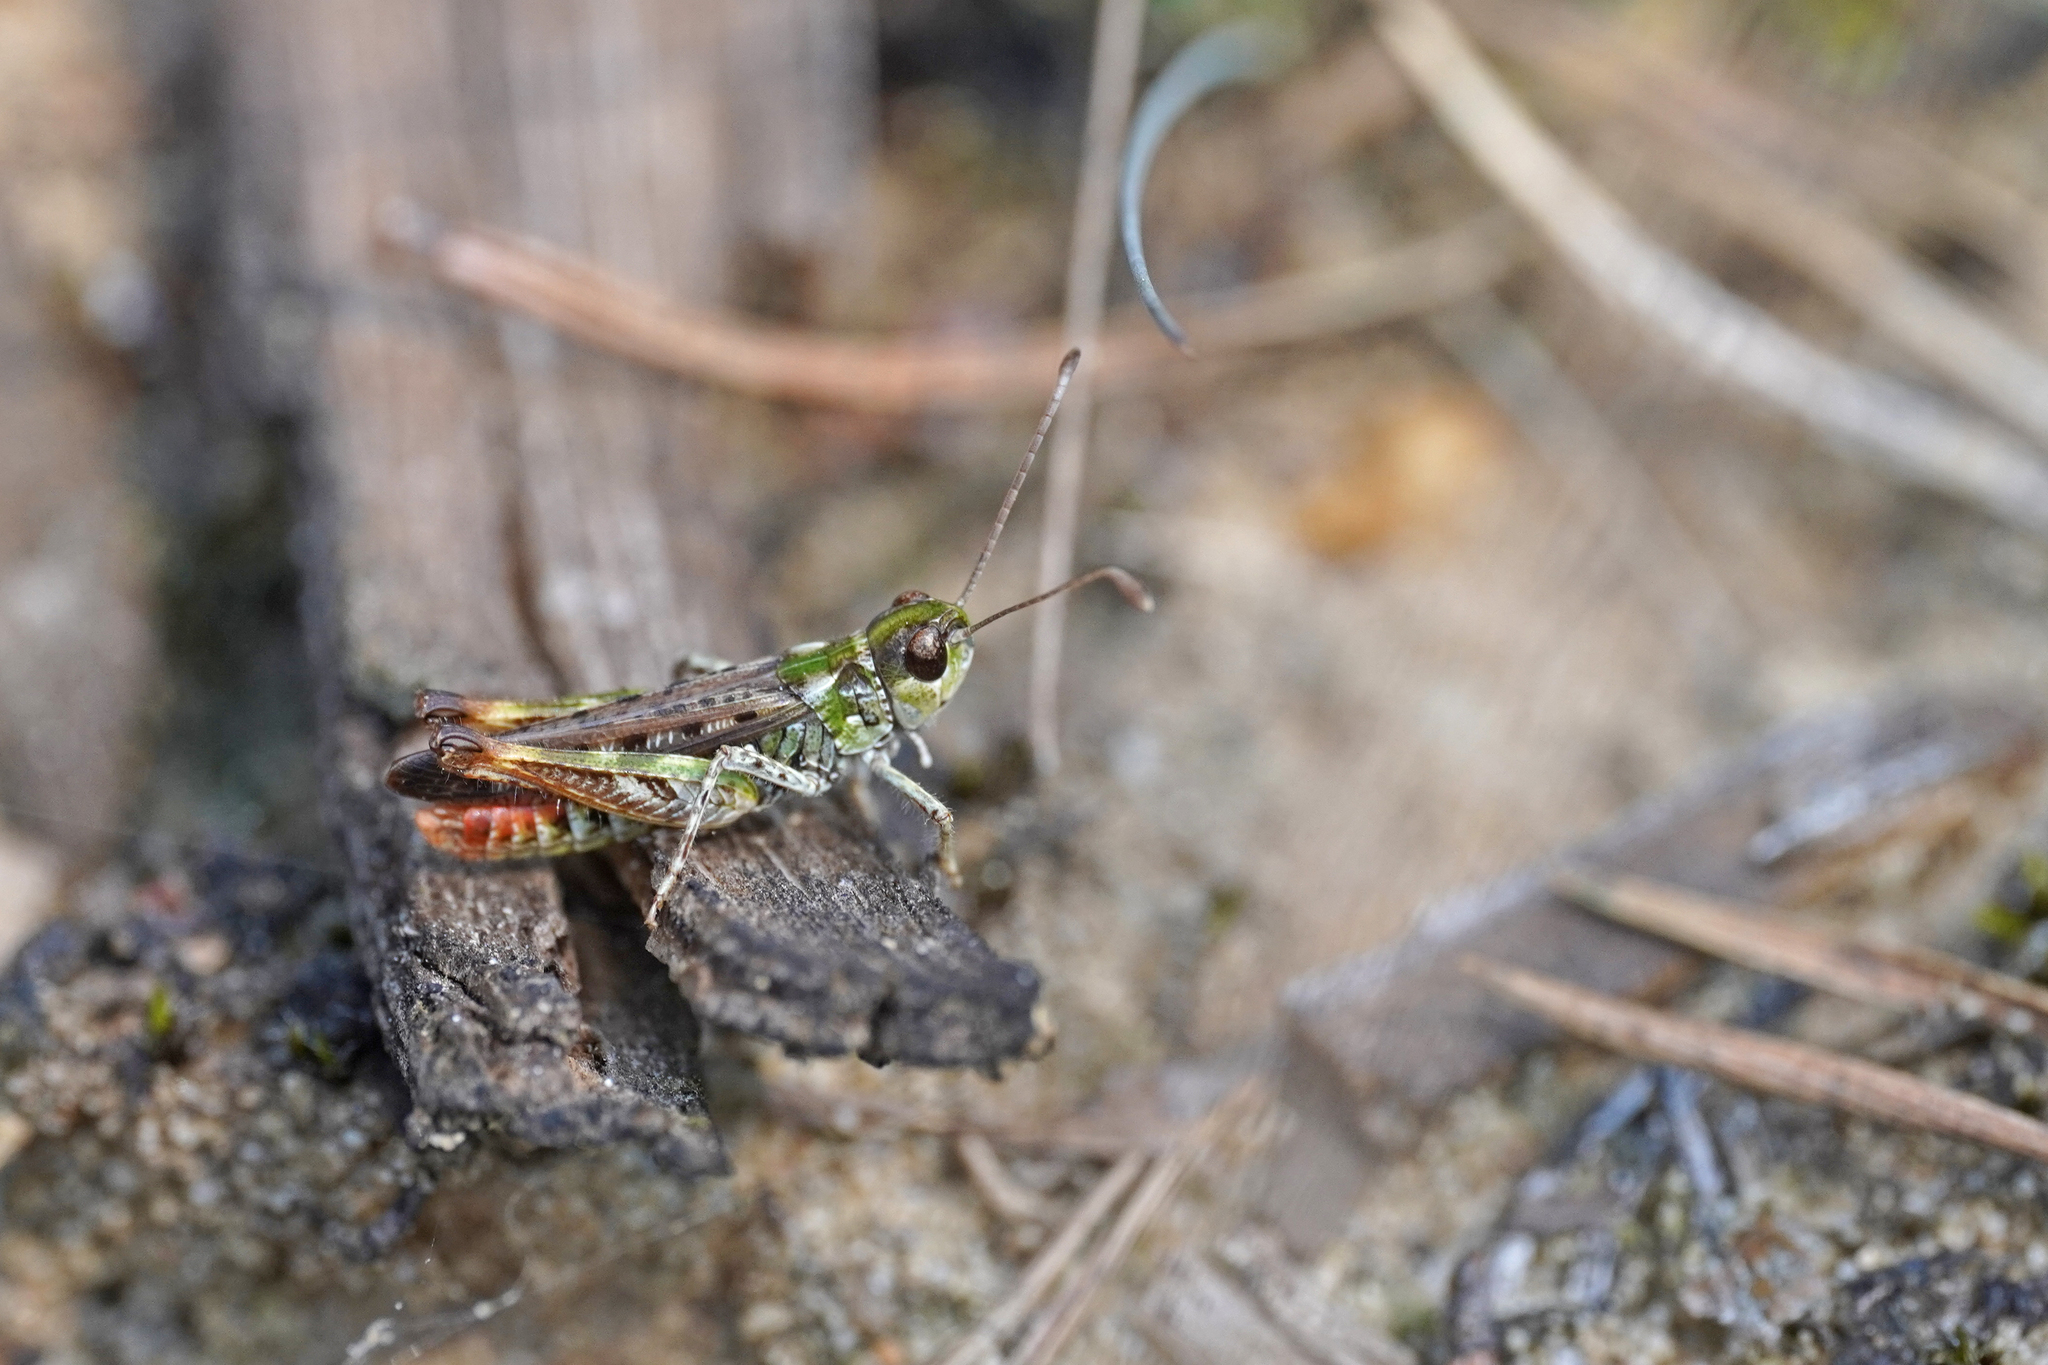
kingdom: Animalia
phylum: Arthropoda
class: Insecta
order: Orthoptera
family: Acrididae
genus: Myrmeleotettix
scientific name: Myrmeleotettix maculatus
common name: Mottled grasshopper
